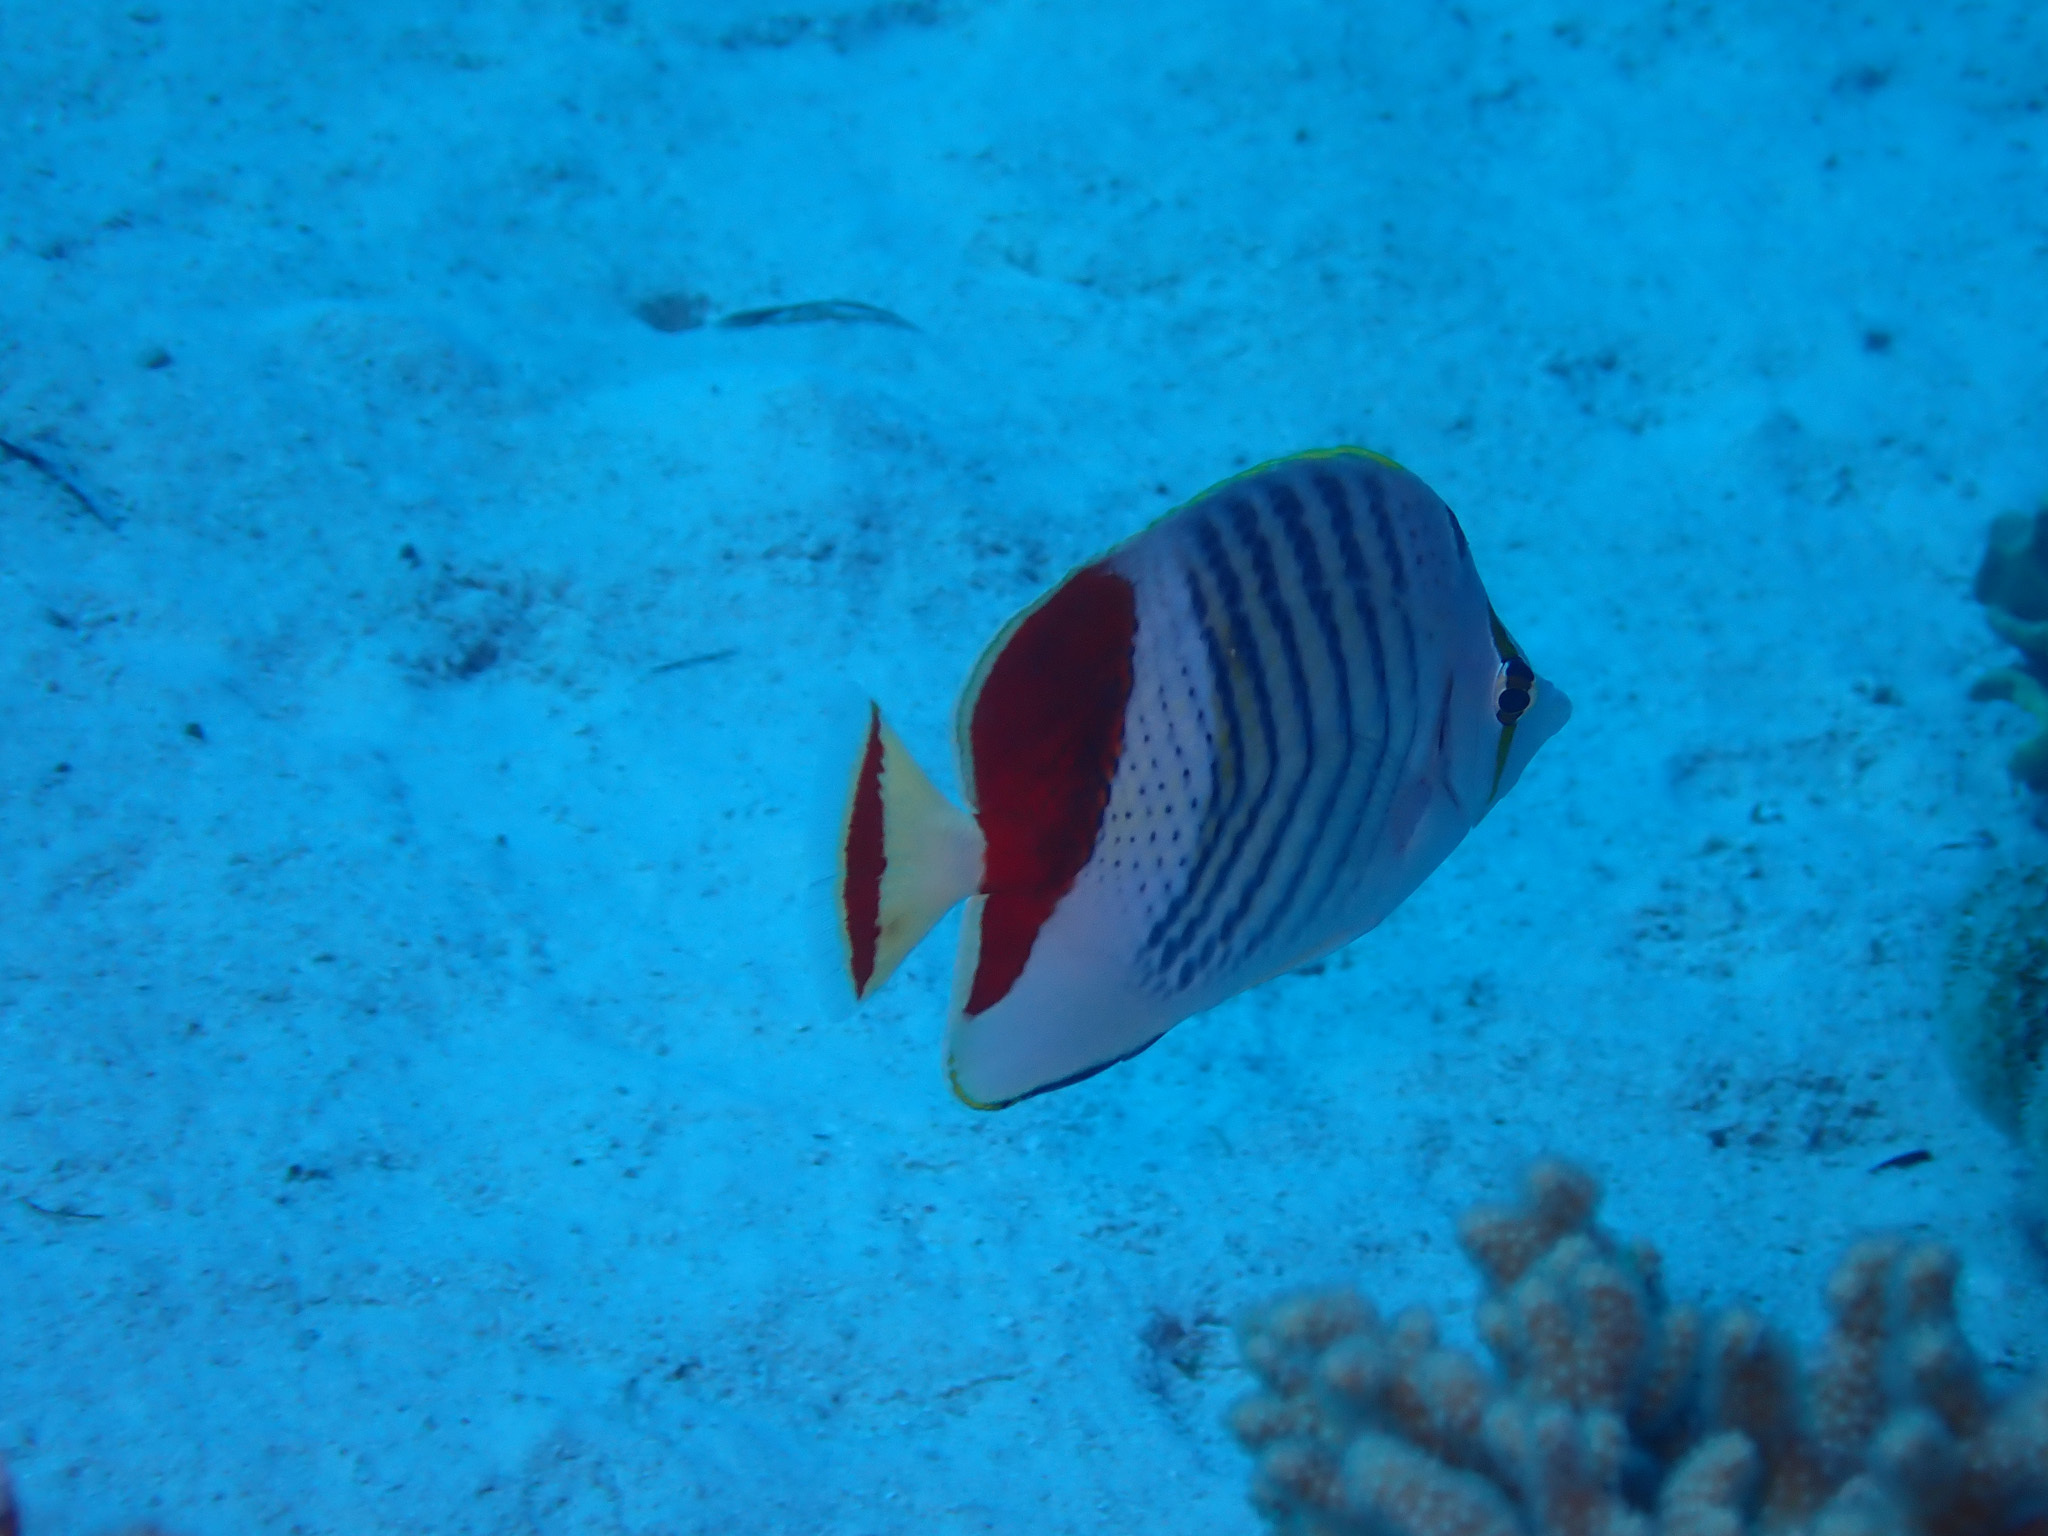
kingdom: Animalia
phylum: Chordata
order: Perciformes
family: Chaetodontidae
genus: Chaetodon
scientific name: Chaetodon paucifasciatus
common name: Crown butterflyfish
